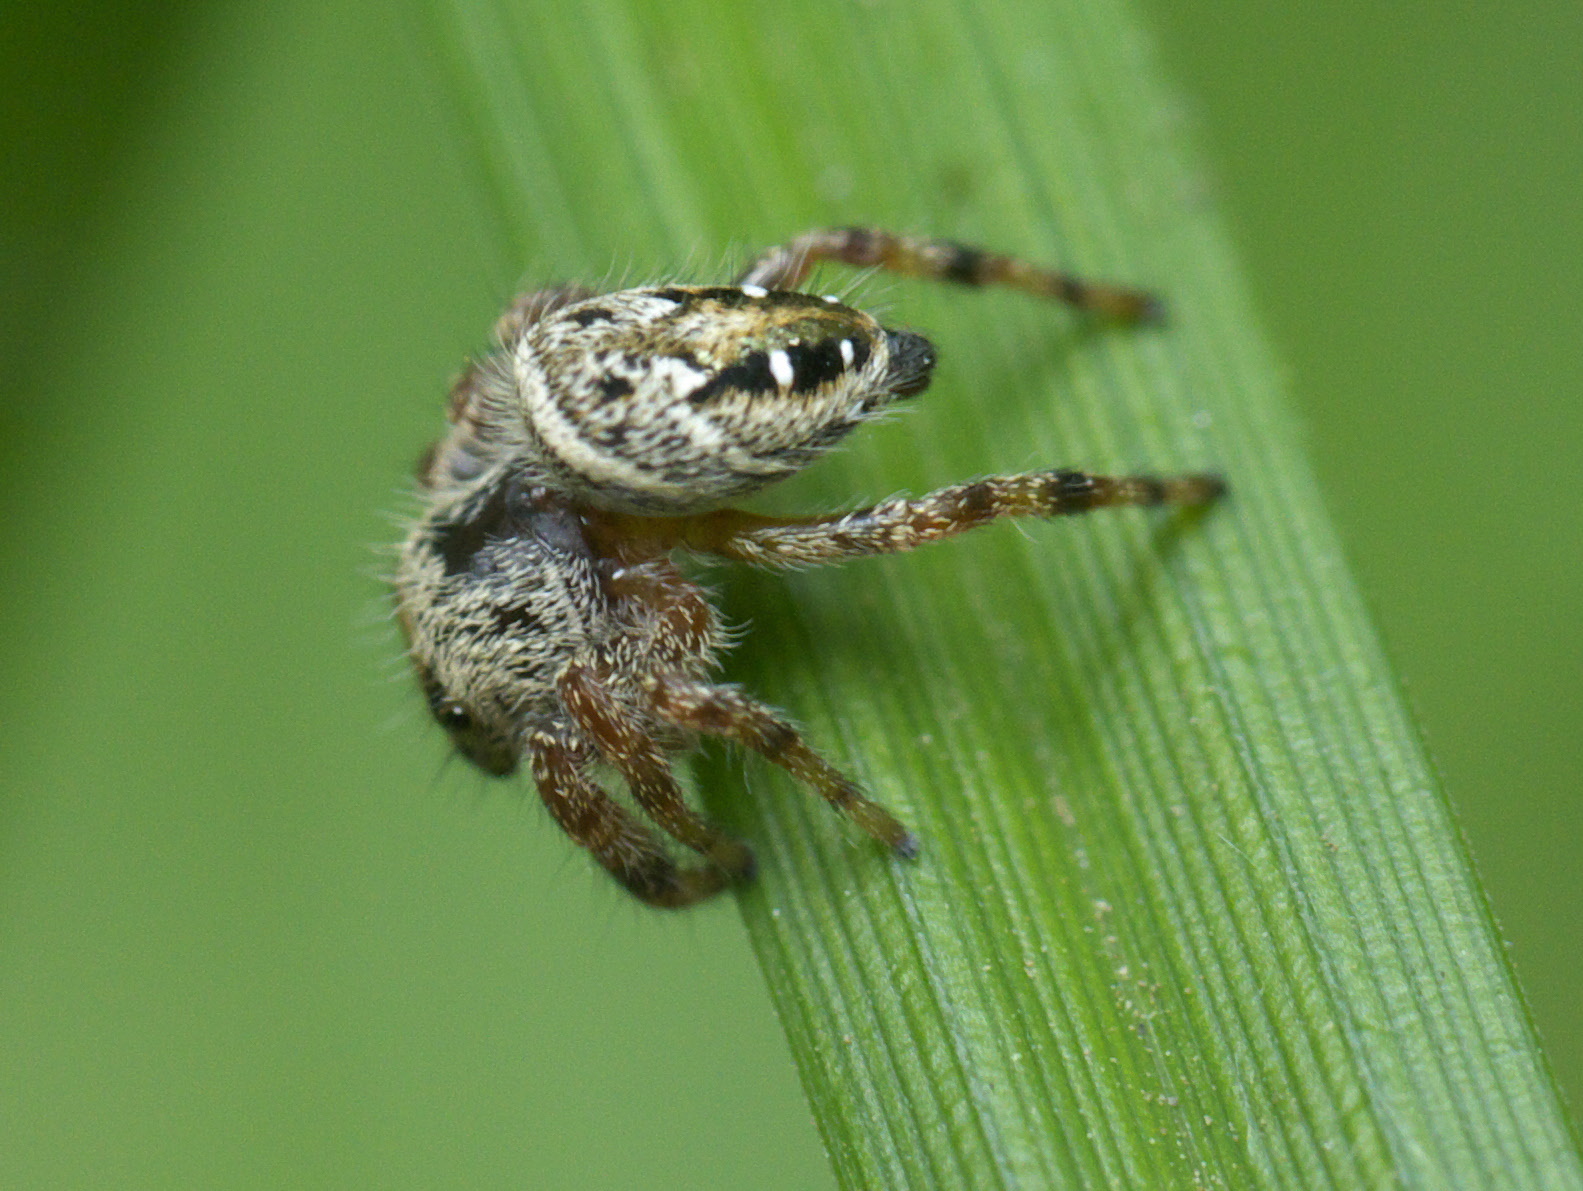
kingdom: Animalia
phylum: Arthropoda
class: Arachnida
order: Araneae
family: Salticidae
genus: Phidippus
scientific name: Phidippus clarus
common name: Brilliant jumping spider
